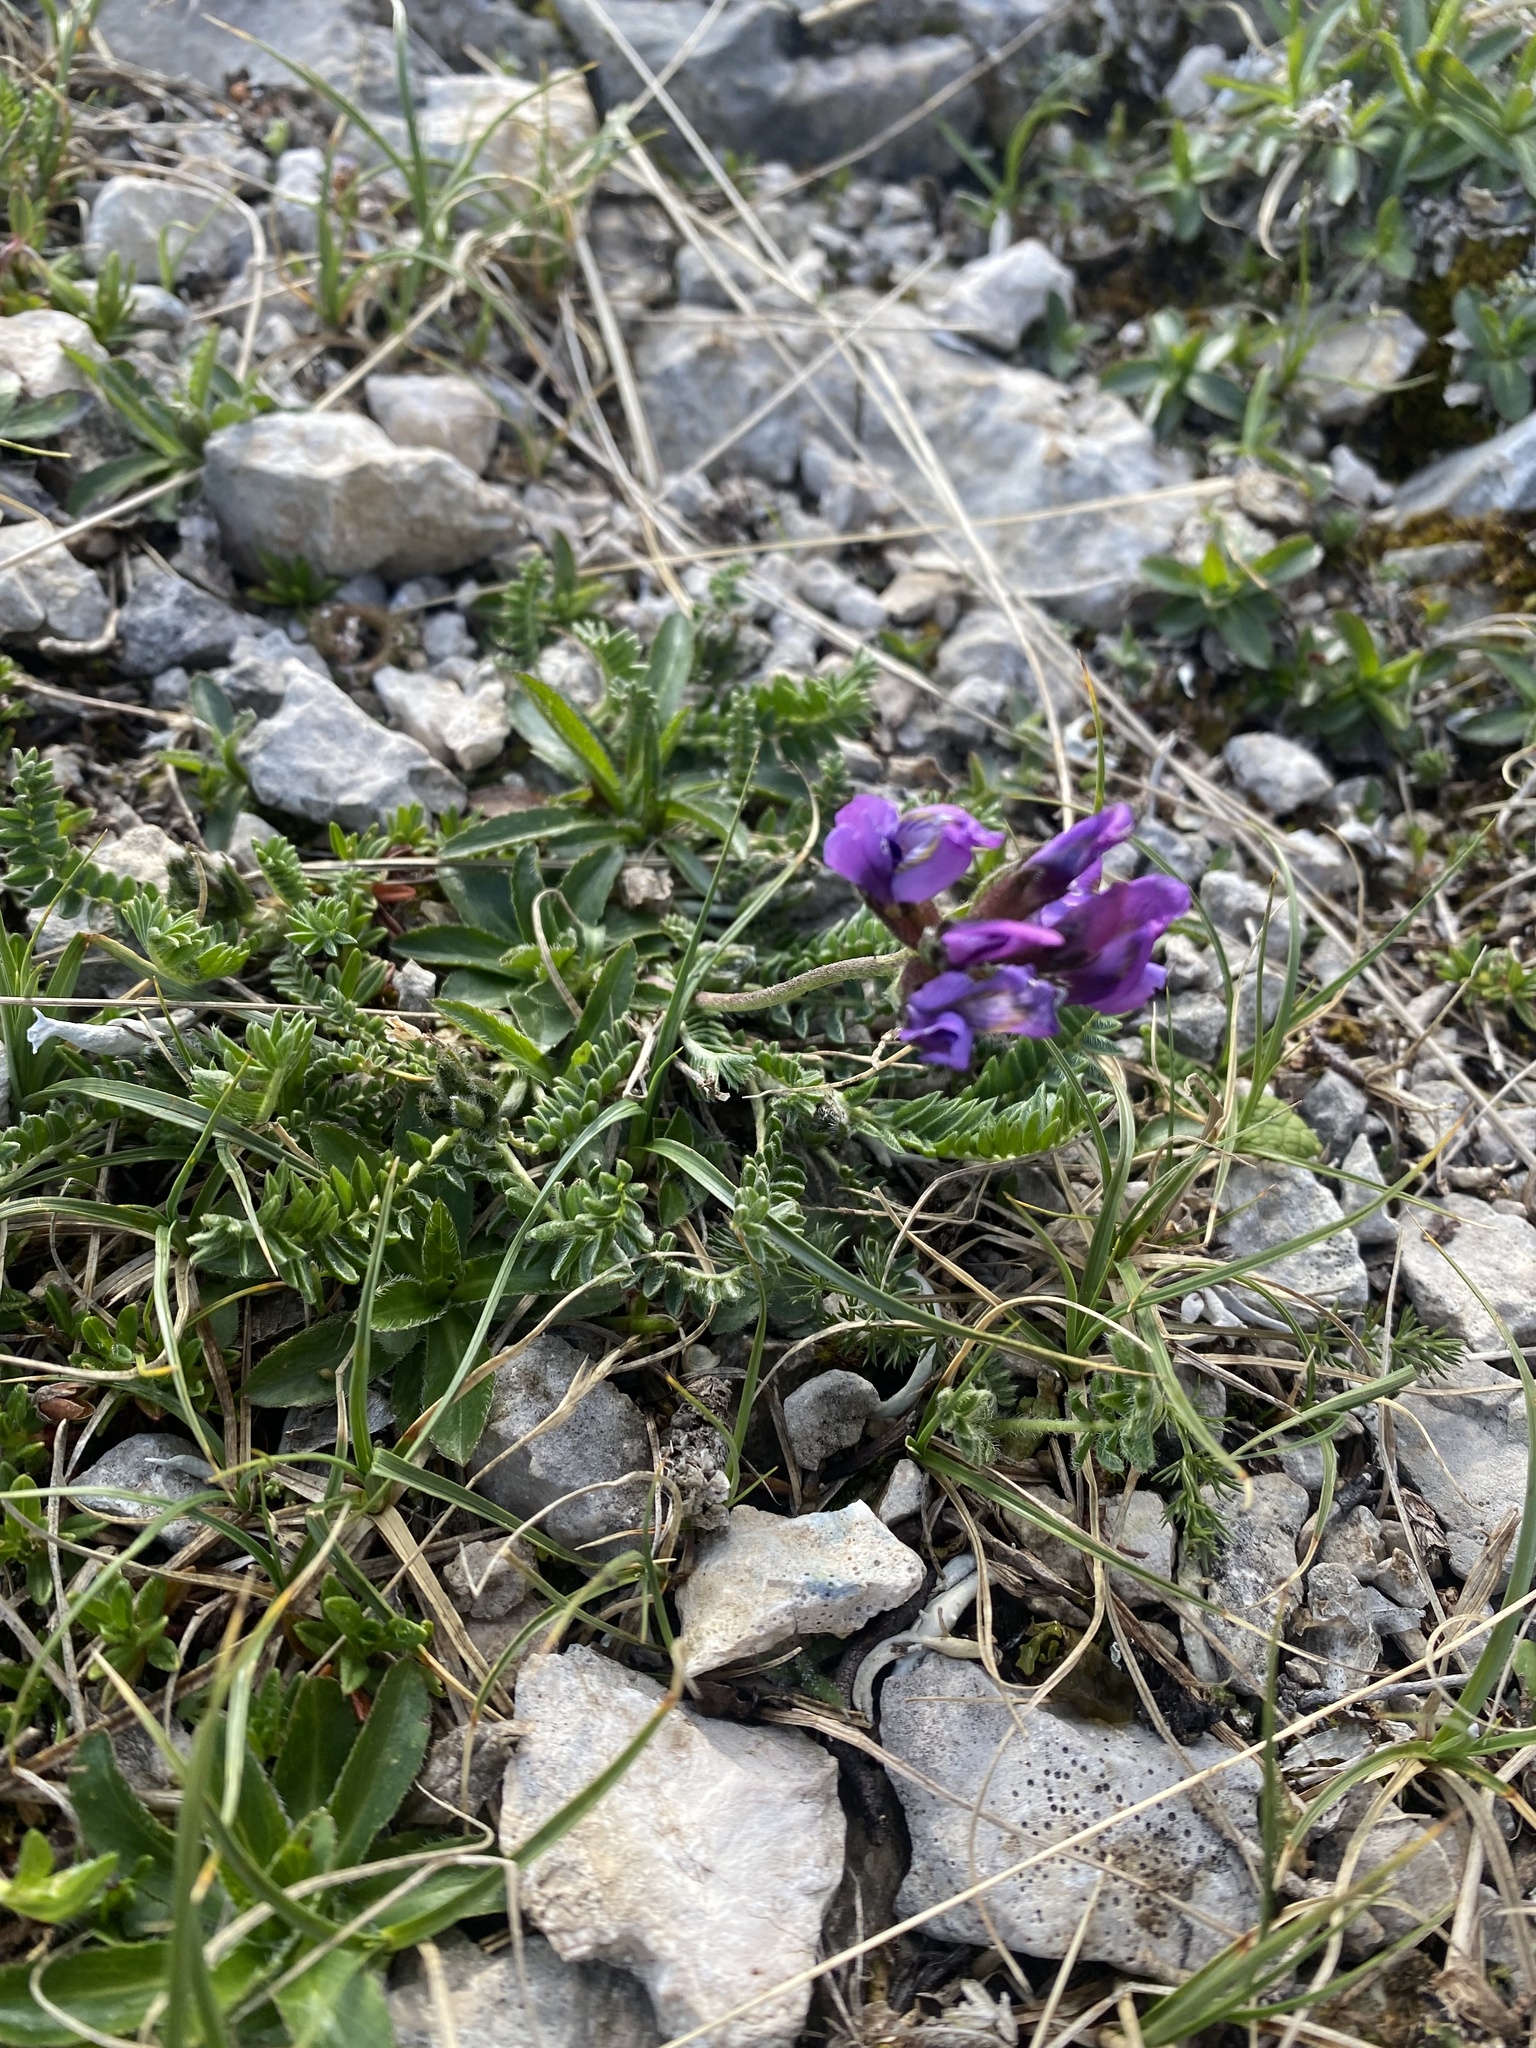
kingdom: Plantae
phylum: Tracheophyta
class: Magnoliopsida
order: Fabales
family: Fabaceae
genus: Oxytropis
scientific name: Oxytropis lazica
